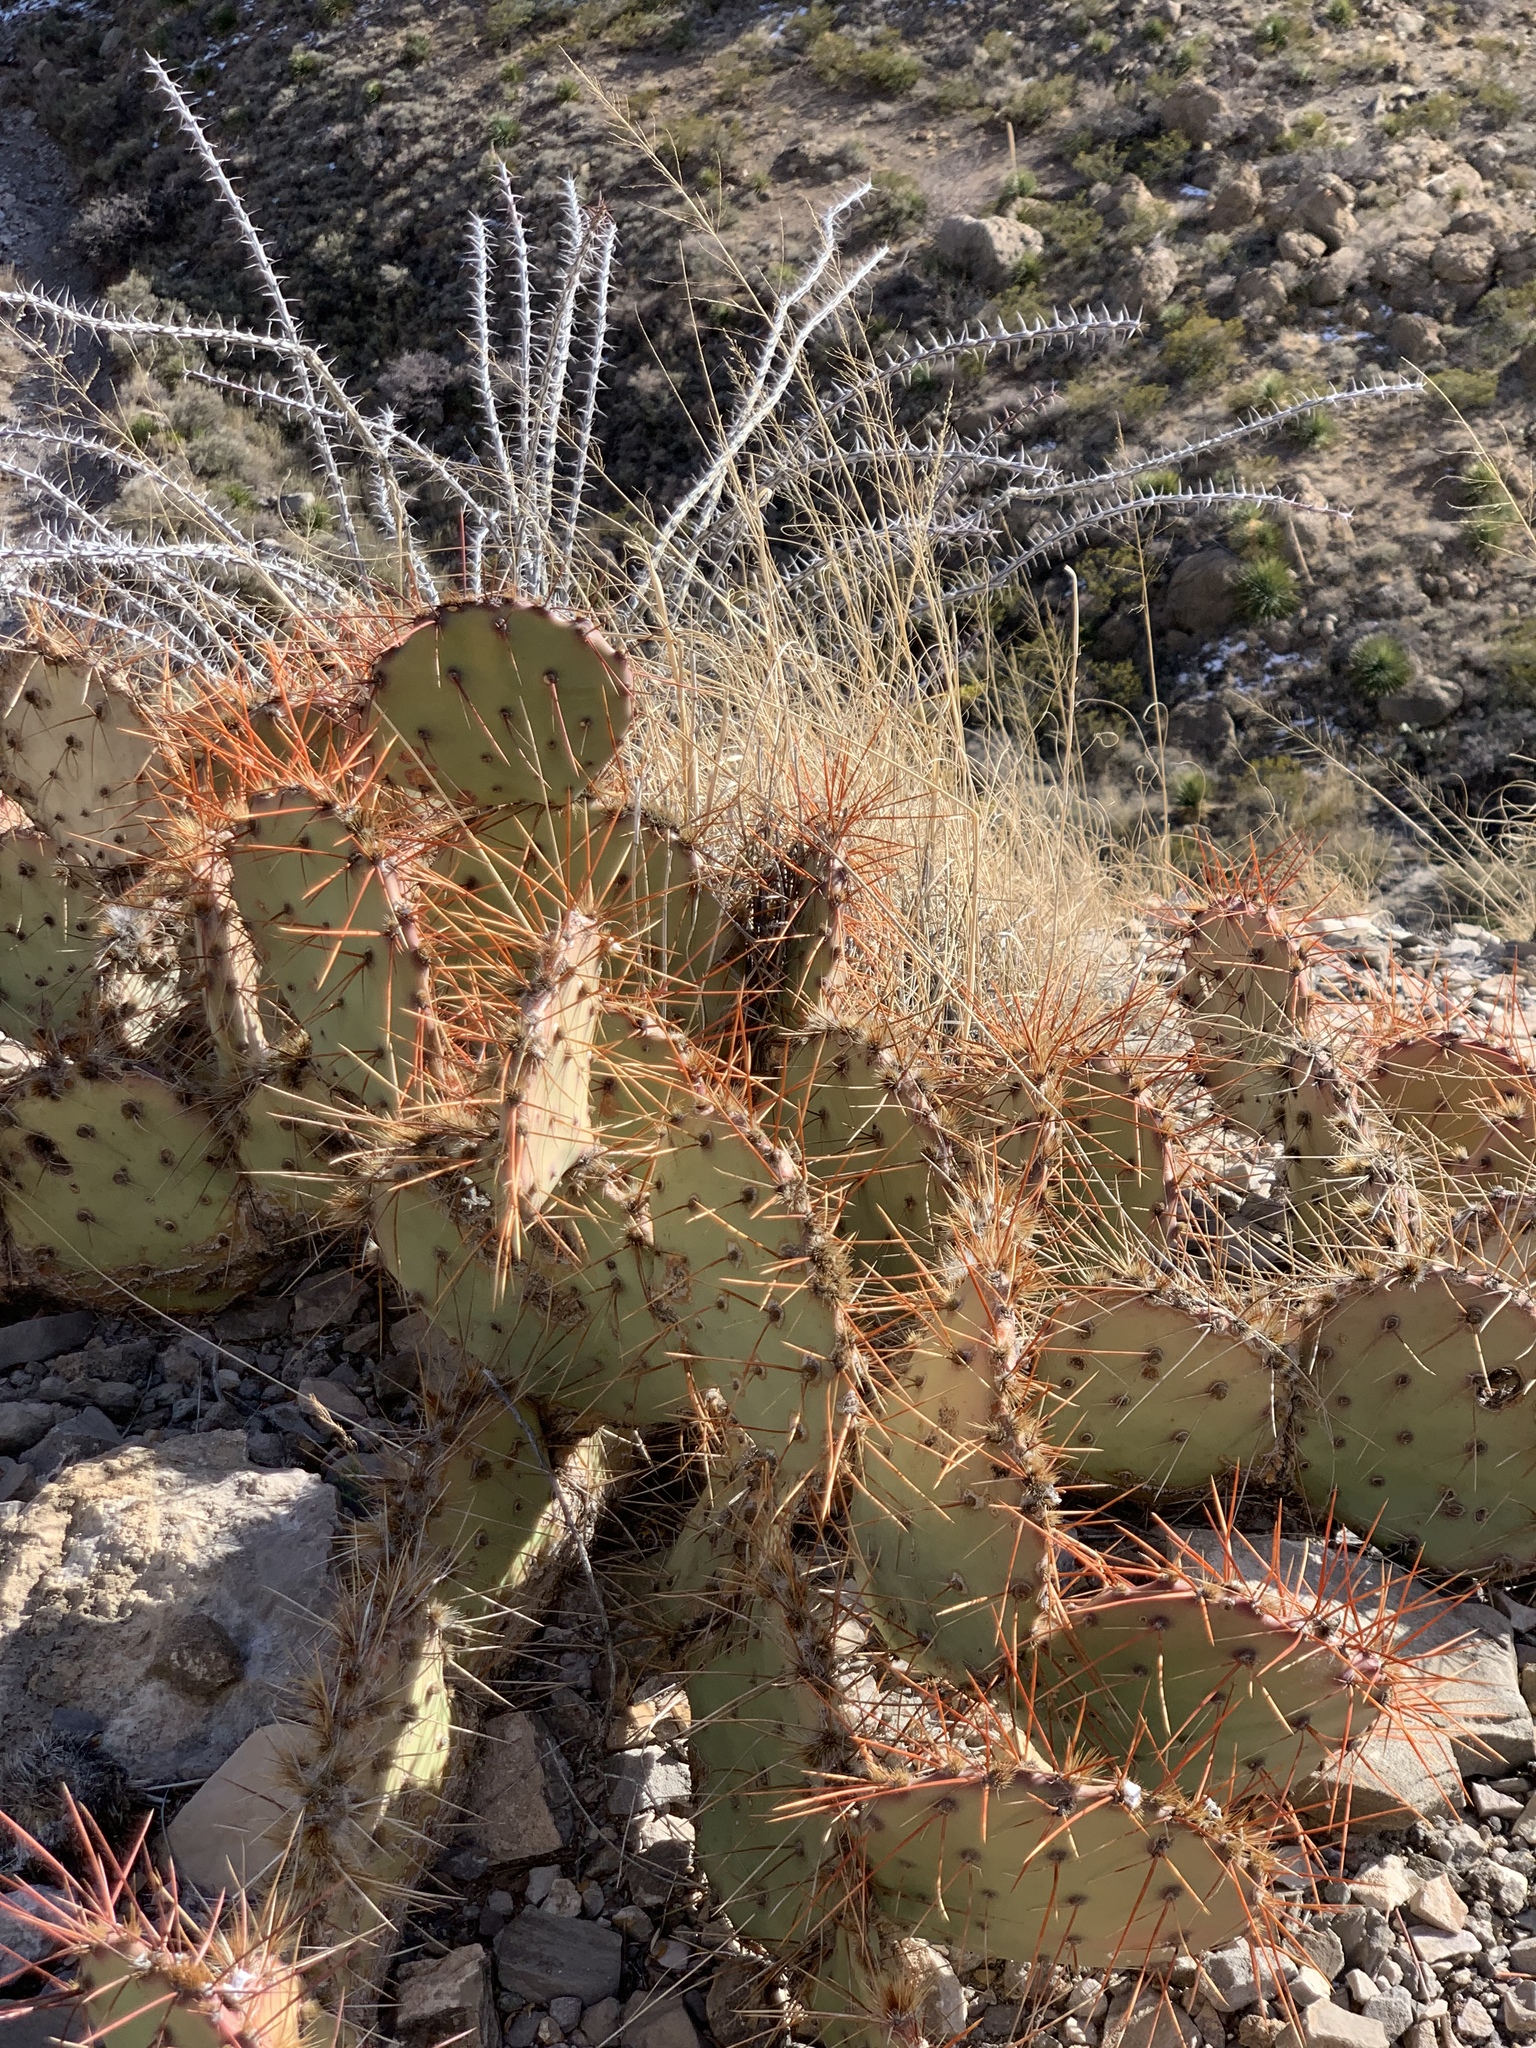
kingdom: Plantae
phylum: Tracheophyta
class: Magnoliopsida
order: Caryophyllales
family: Cactaceae
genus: Opuntia
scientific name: Opuntia phaeacantha
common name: New mexico prickly-pear
